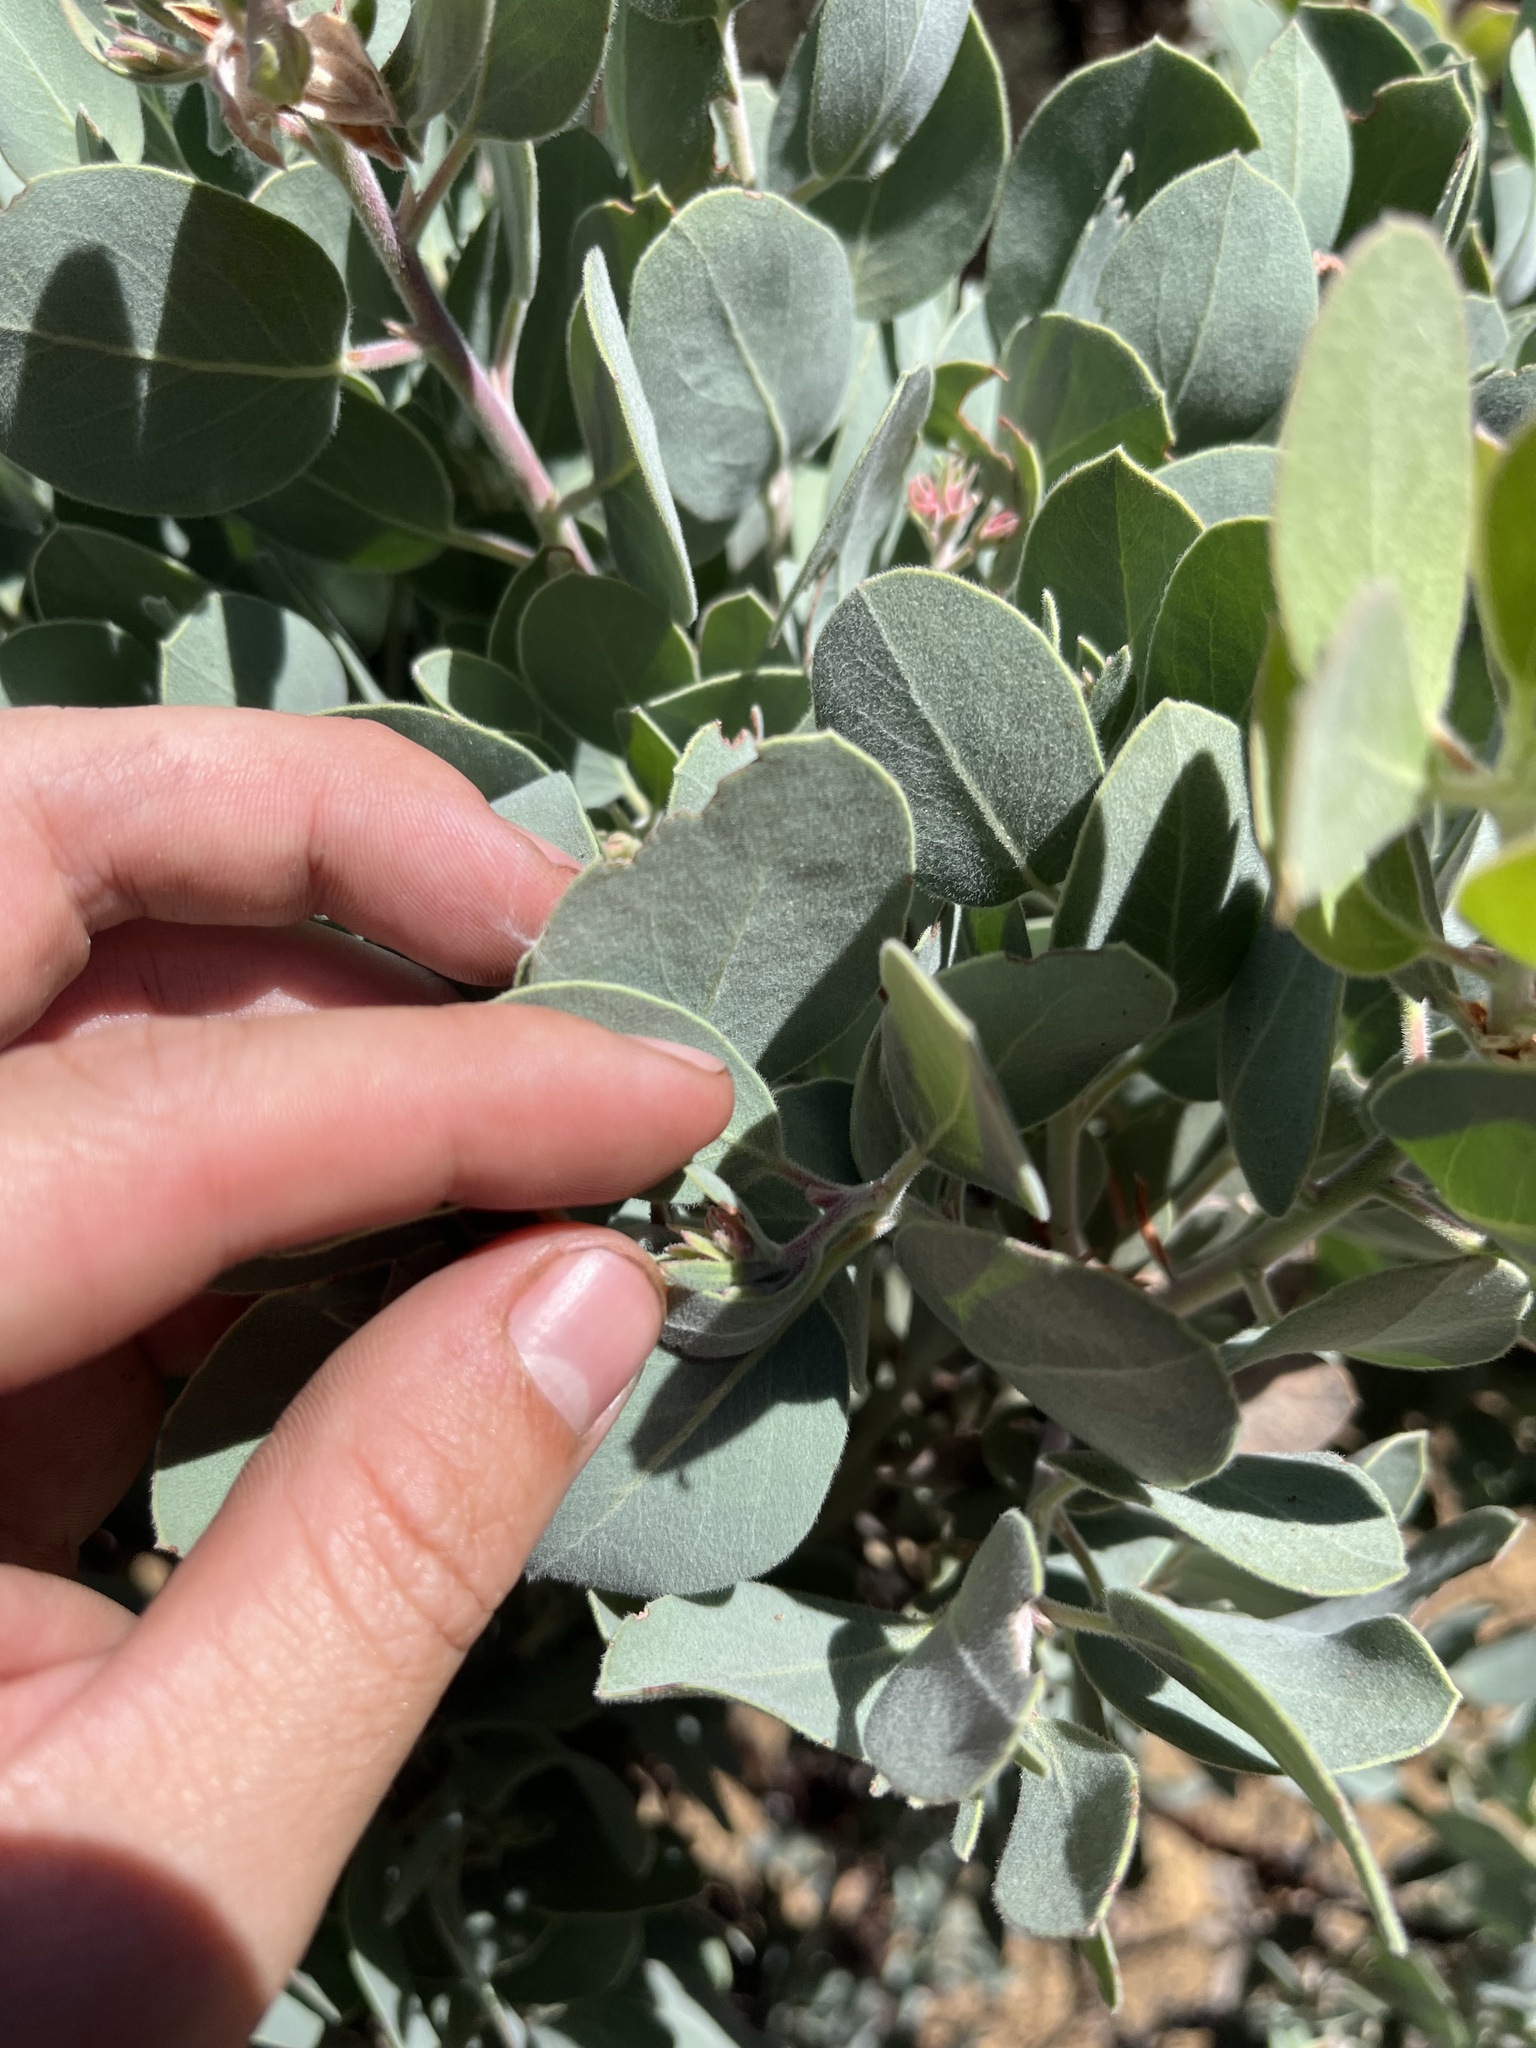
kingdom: Plantae
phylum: Tracheophyta
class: Magnoliopsida
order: Ericales
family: Ericaceae
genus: Arctostaphylos
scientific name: Arctostaphylos canescens
